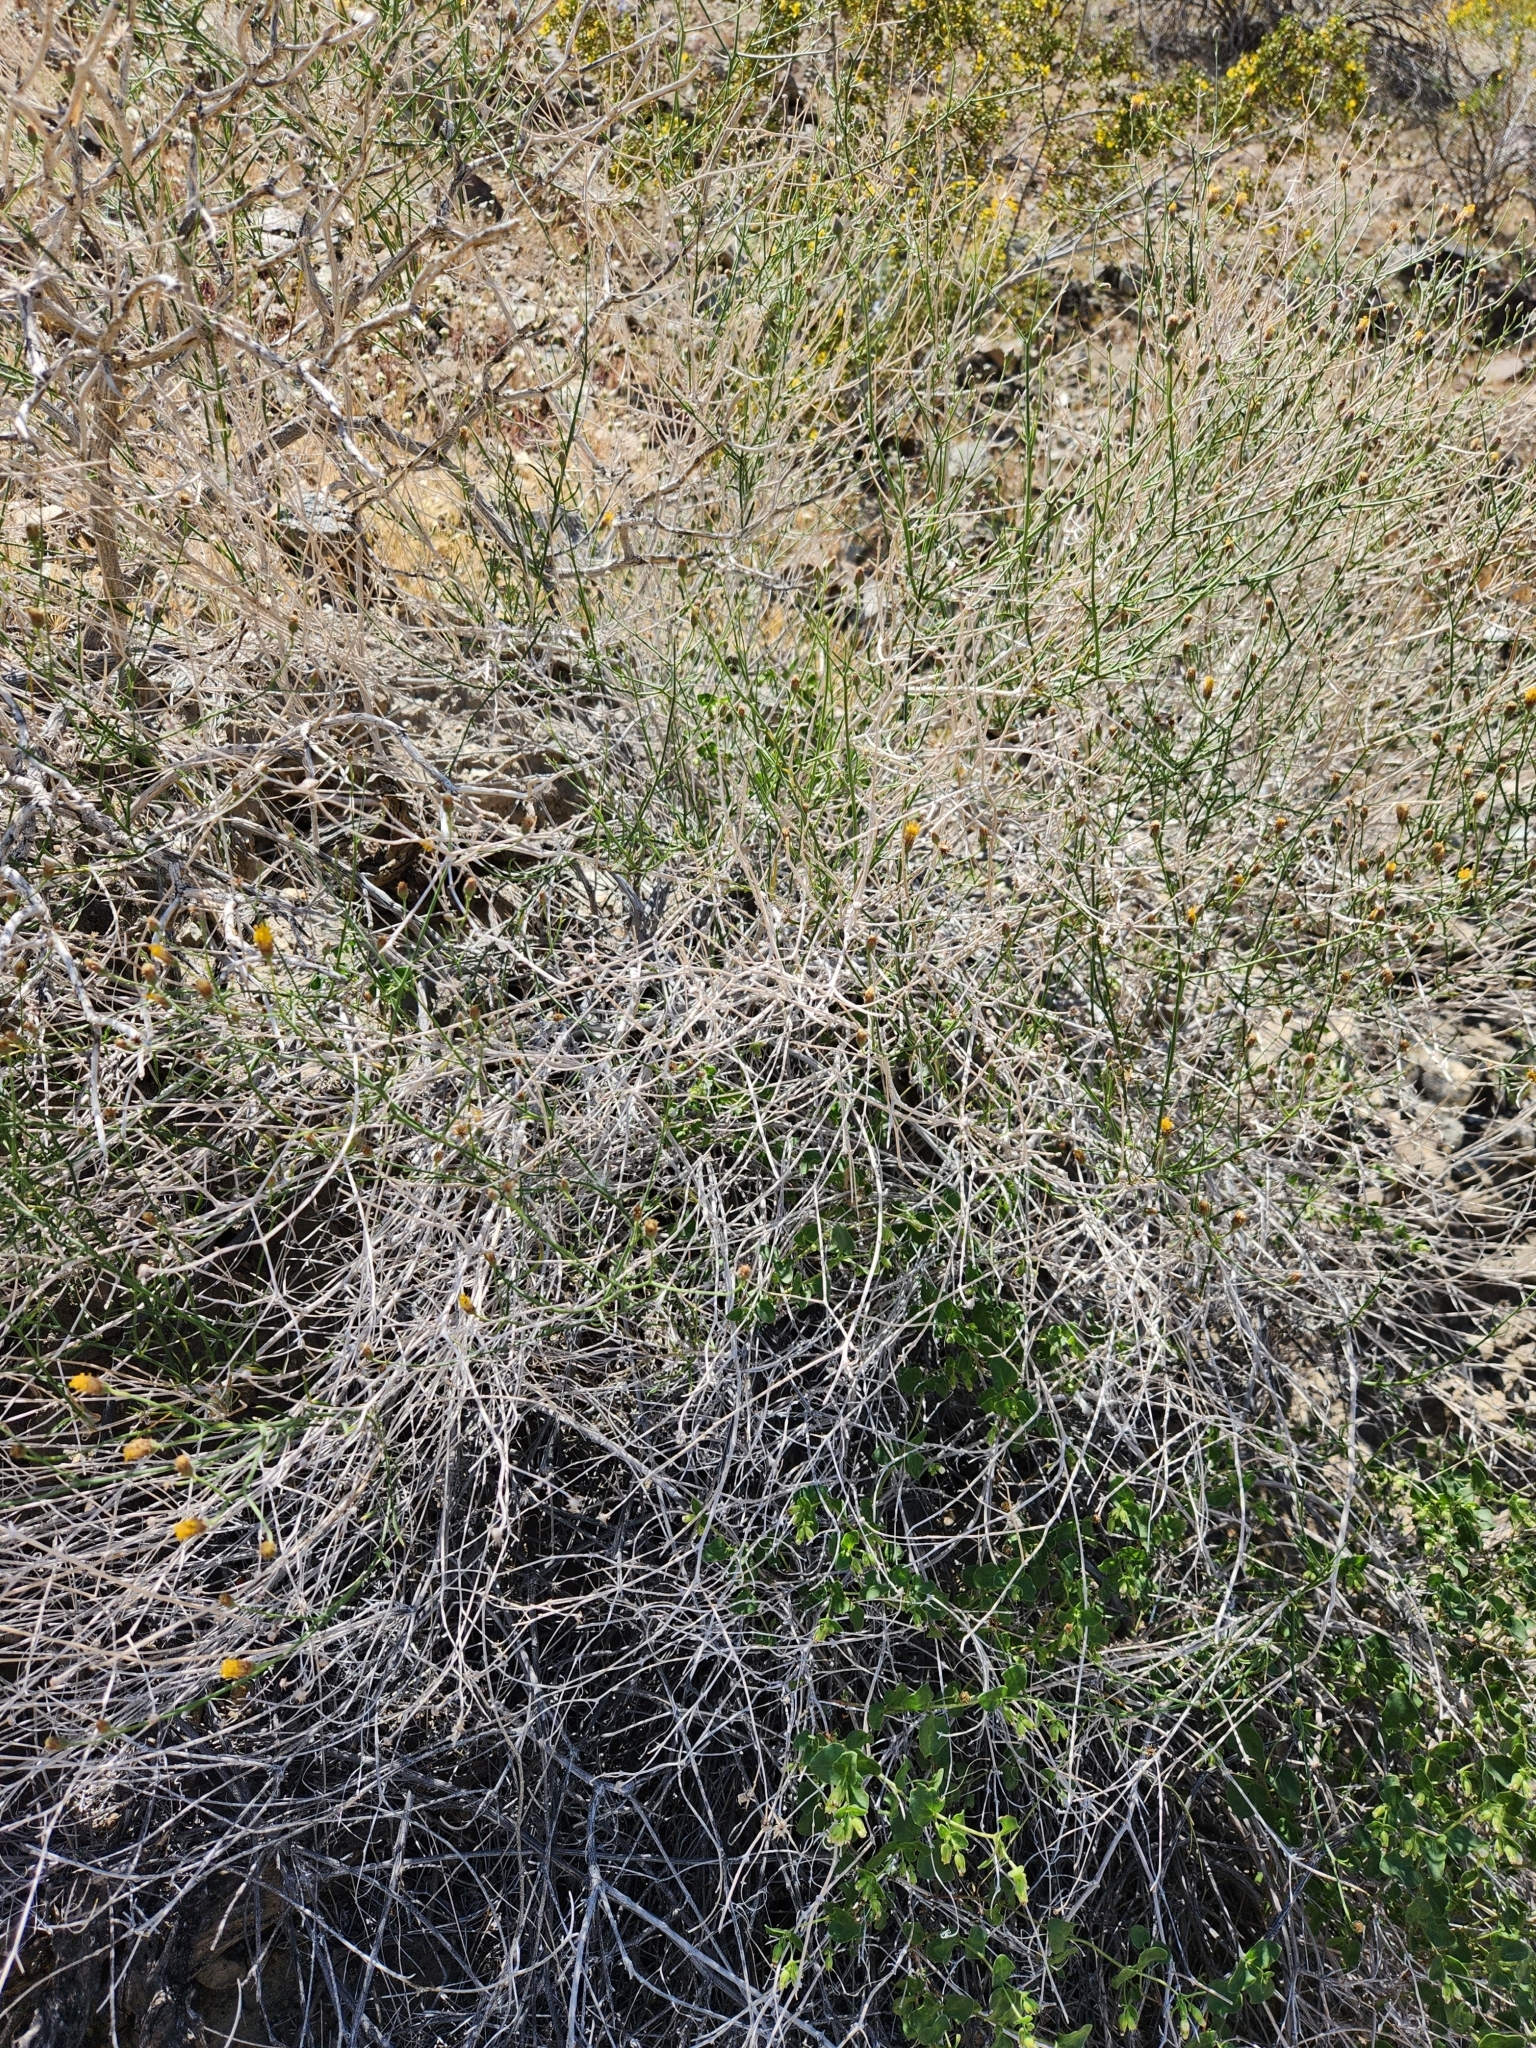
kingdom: Plantae
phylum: Tracheophyta
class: Magnoliopsida
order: Asterales
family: Asteraceae
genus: Bebbia
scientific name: Bebbia juncea
